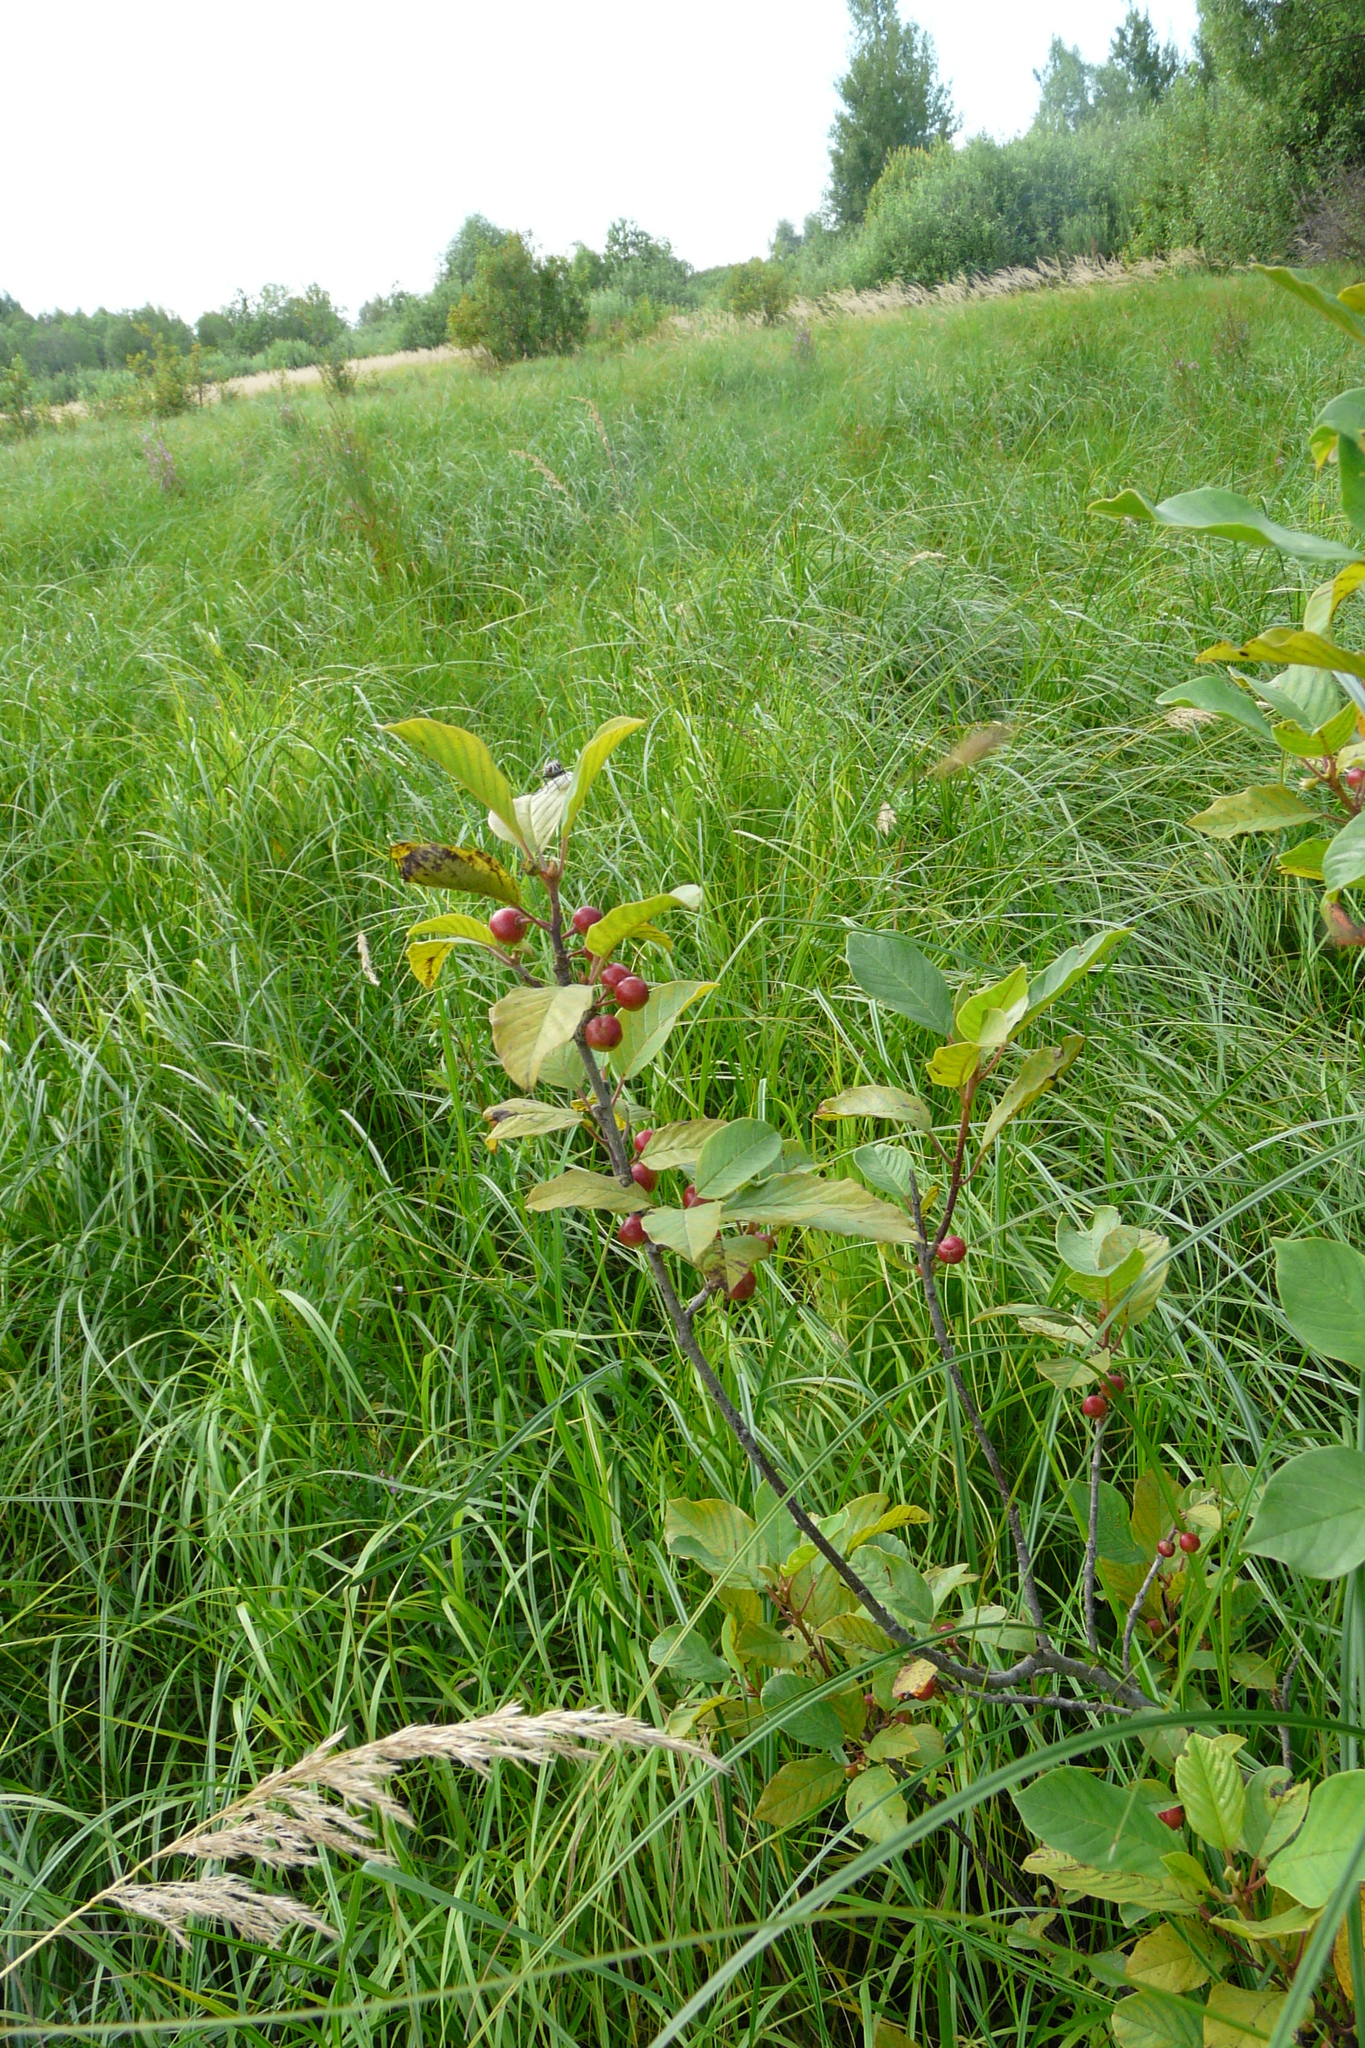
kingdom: Plantae
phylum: Tracheophyta
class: Magnoliopsida
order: Rosales
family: Rhamnaceae
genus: Frangula
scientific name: Frangula alnus
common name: Alder buckthorn
